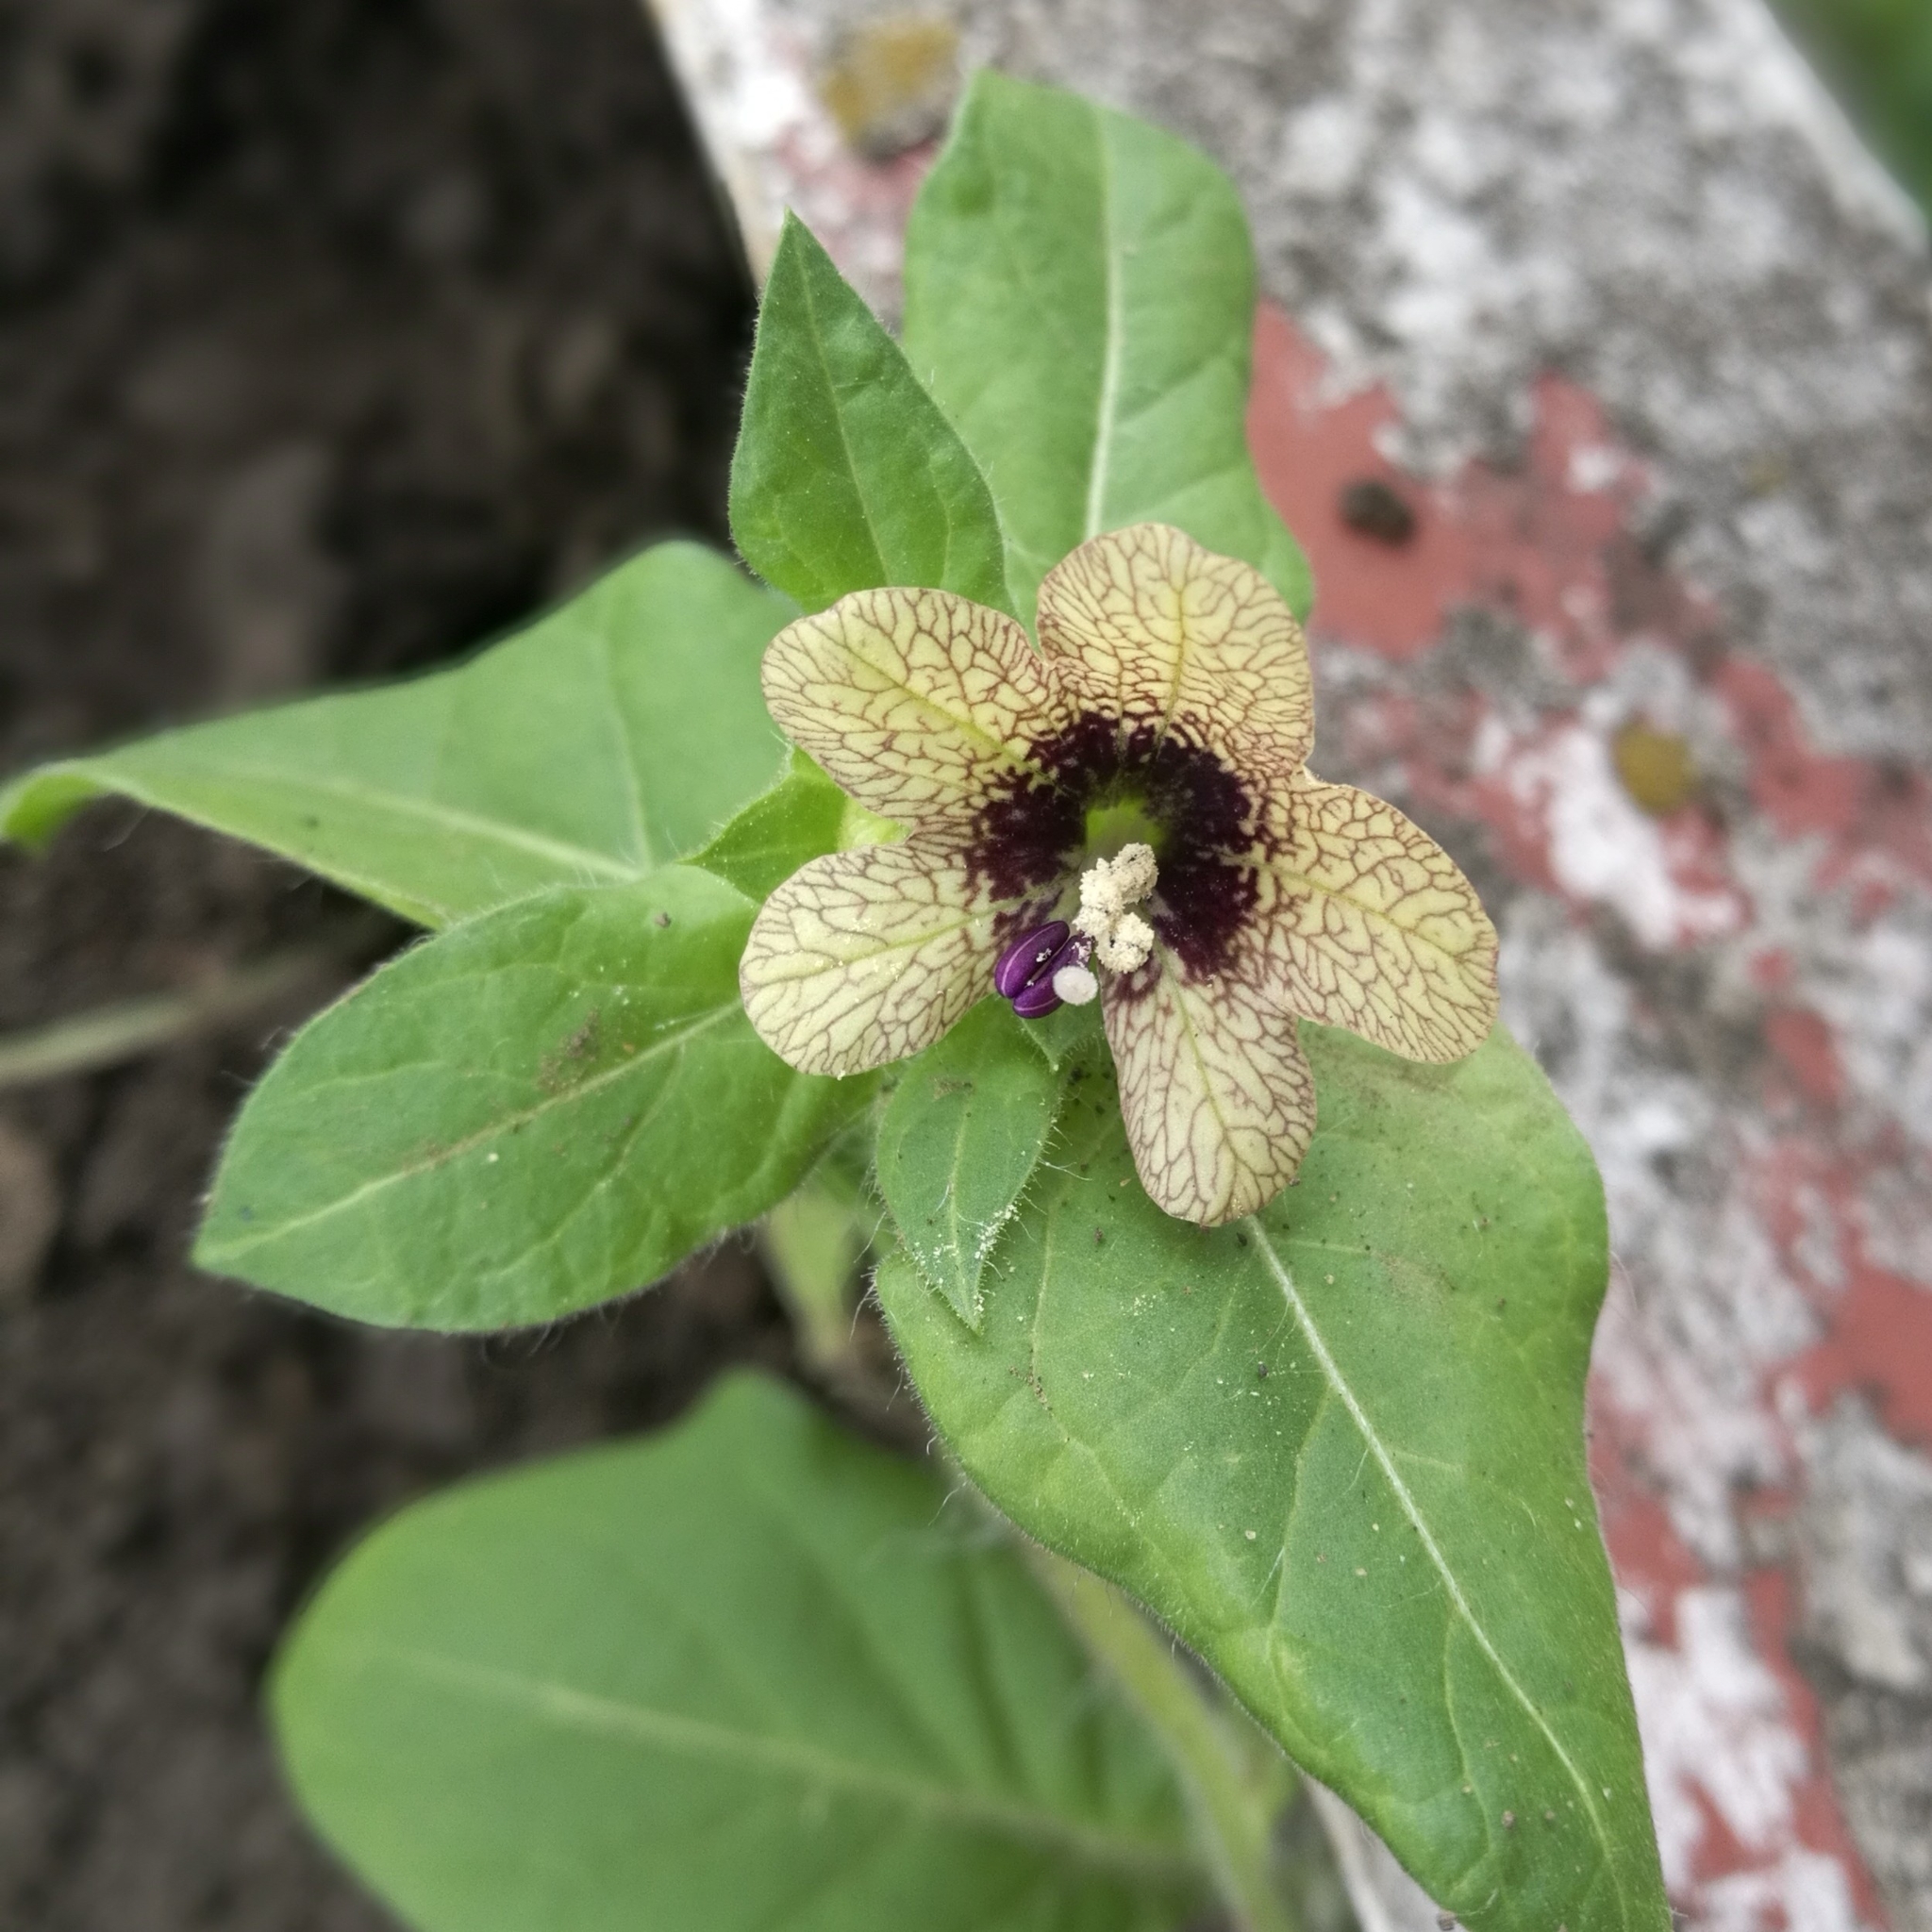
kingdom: Plantae
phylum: Tracheophyta
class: Magnoliopsida
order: Solanales
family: Solanaceae
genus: Hyoscyamus
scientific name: Hyoscyamus niger
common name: Henbane
